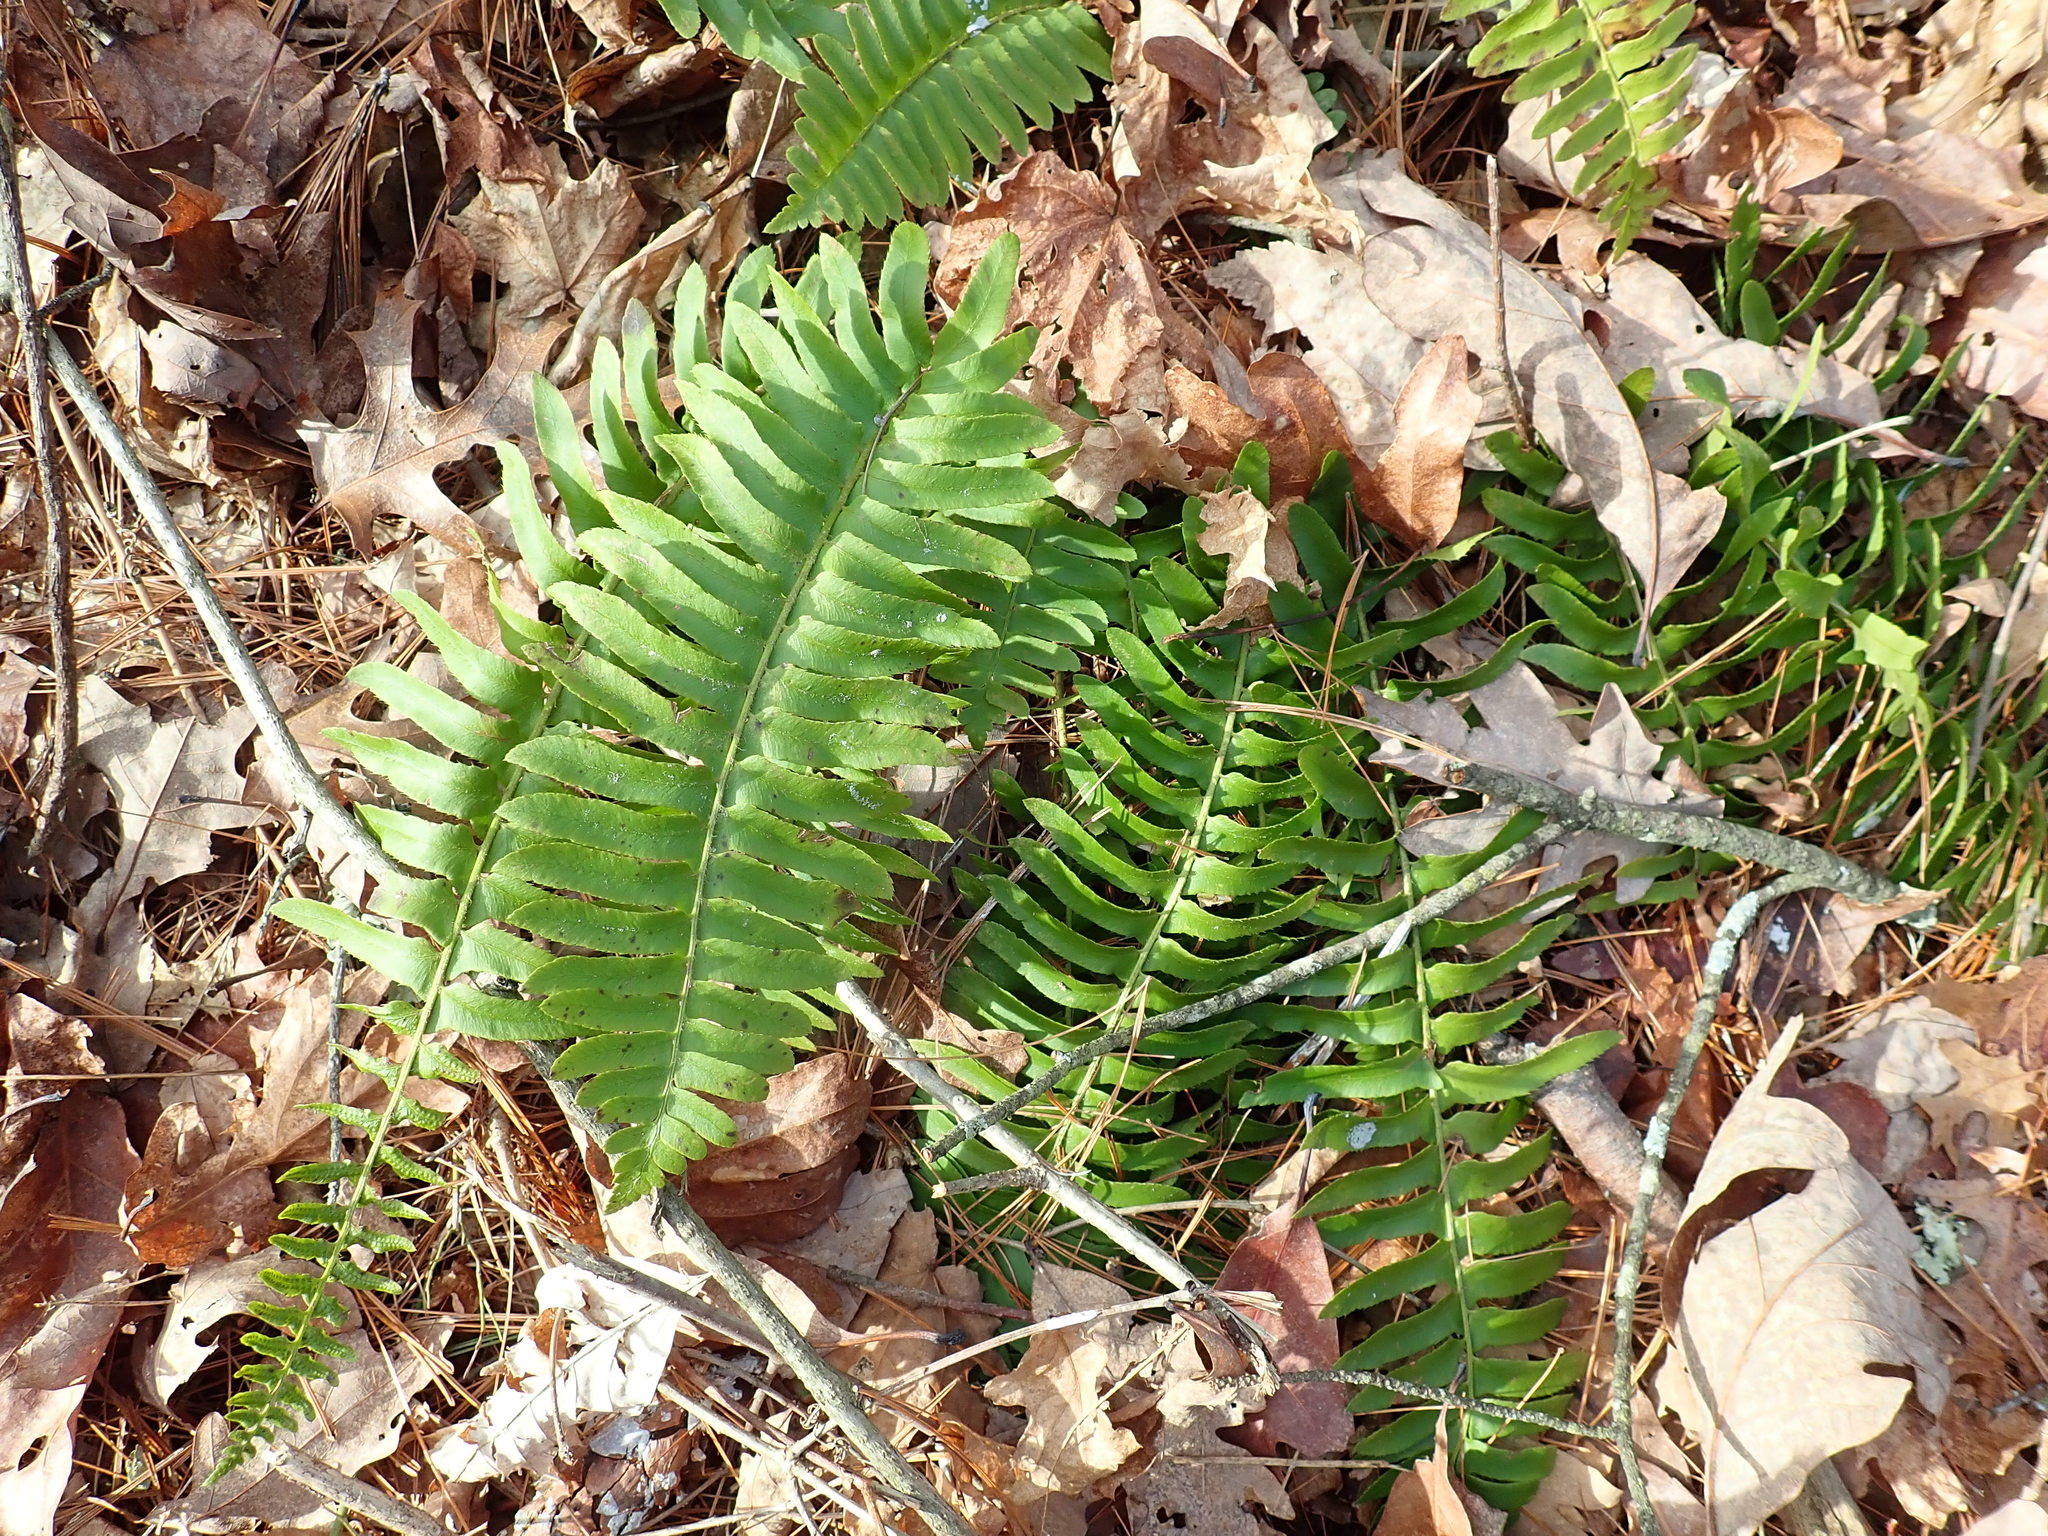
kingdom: Plantae
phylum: Tracheophyta
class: Polypodiopsida
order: Polypodiales
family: Dryopteridaceae
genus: Polystichum
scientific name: Polystichum acrostichoides
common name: Christmas fern
